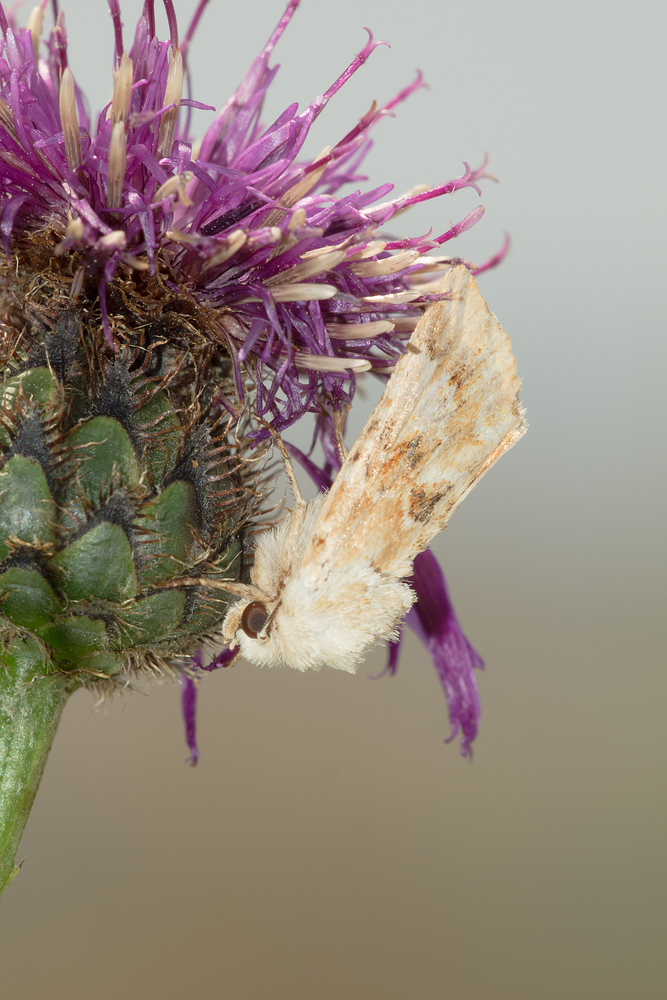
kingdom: Animalia
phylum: Arthropoda
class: Insecta
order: Lepidoptera
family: Noctuidae
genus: Eremobia
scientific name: Eremobia ochroleuca
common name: Dusky sallow
